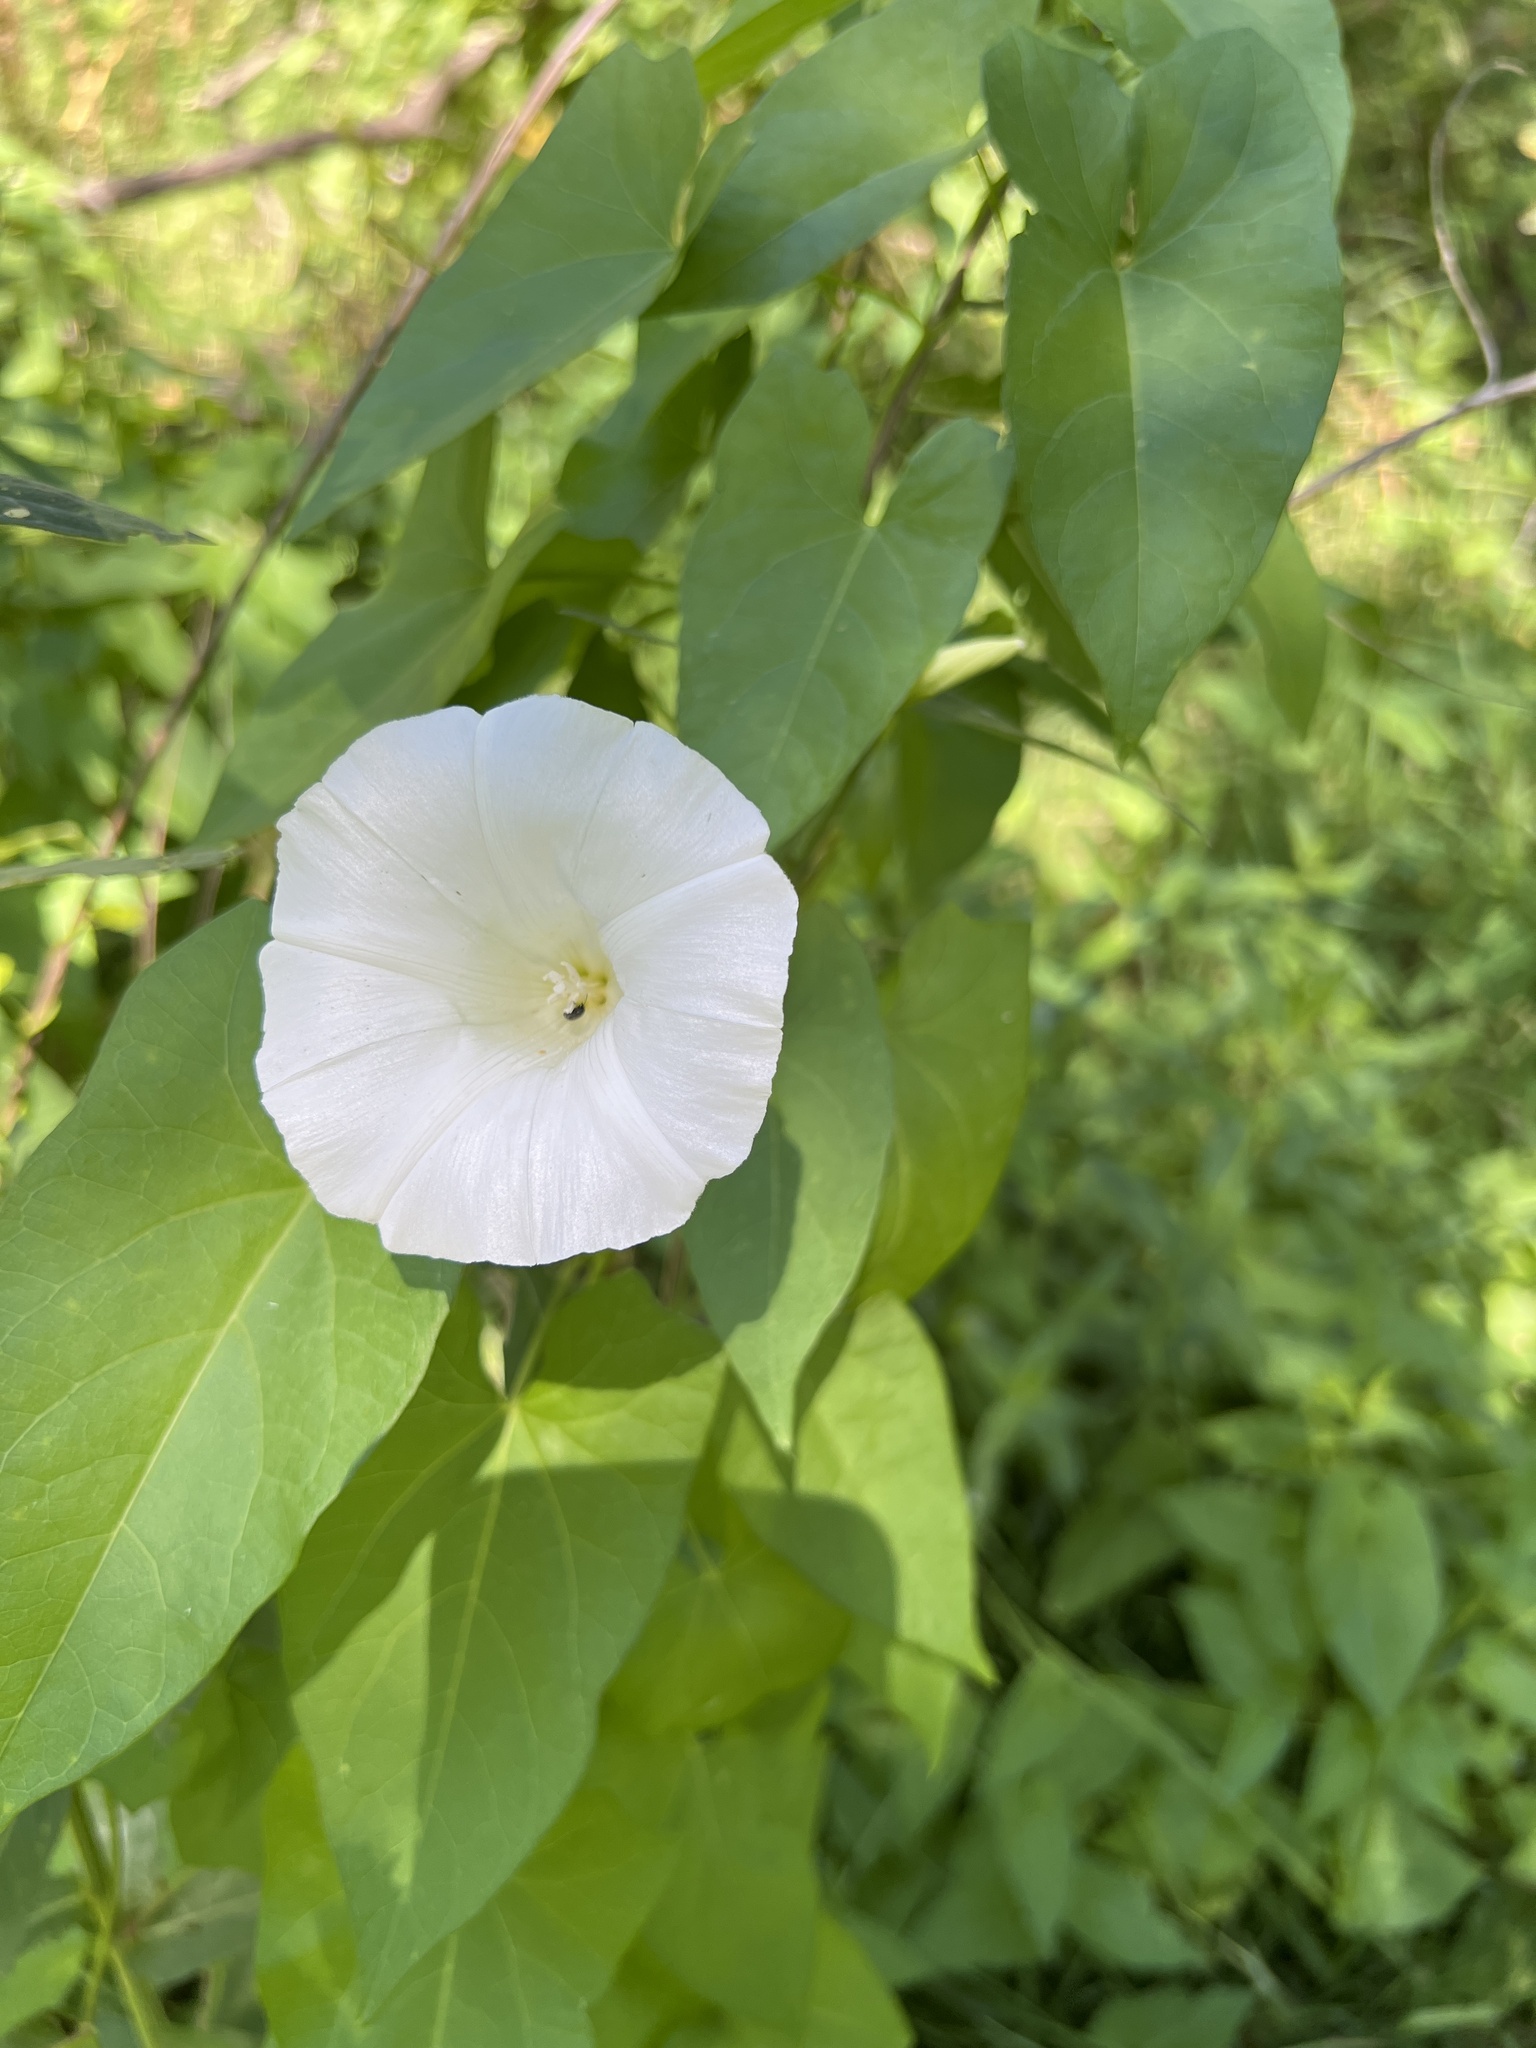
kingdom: Plantae
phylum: Tracheophyta
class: Magnoliopsida
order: Solanales
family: Convolvulaceae
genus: Calystegia
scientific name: Calystegia
